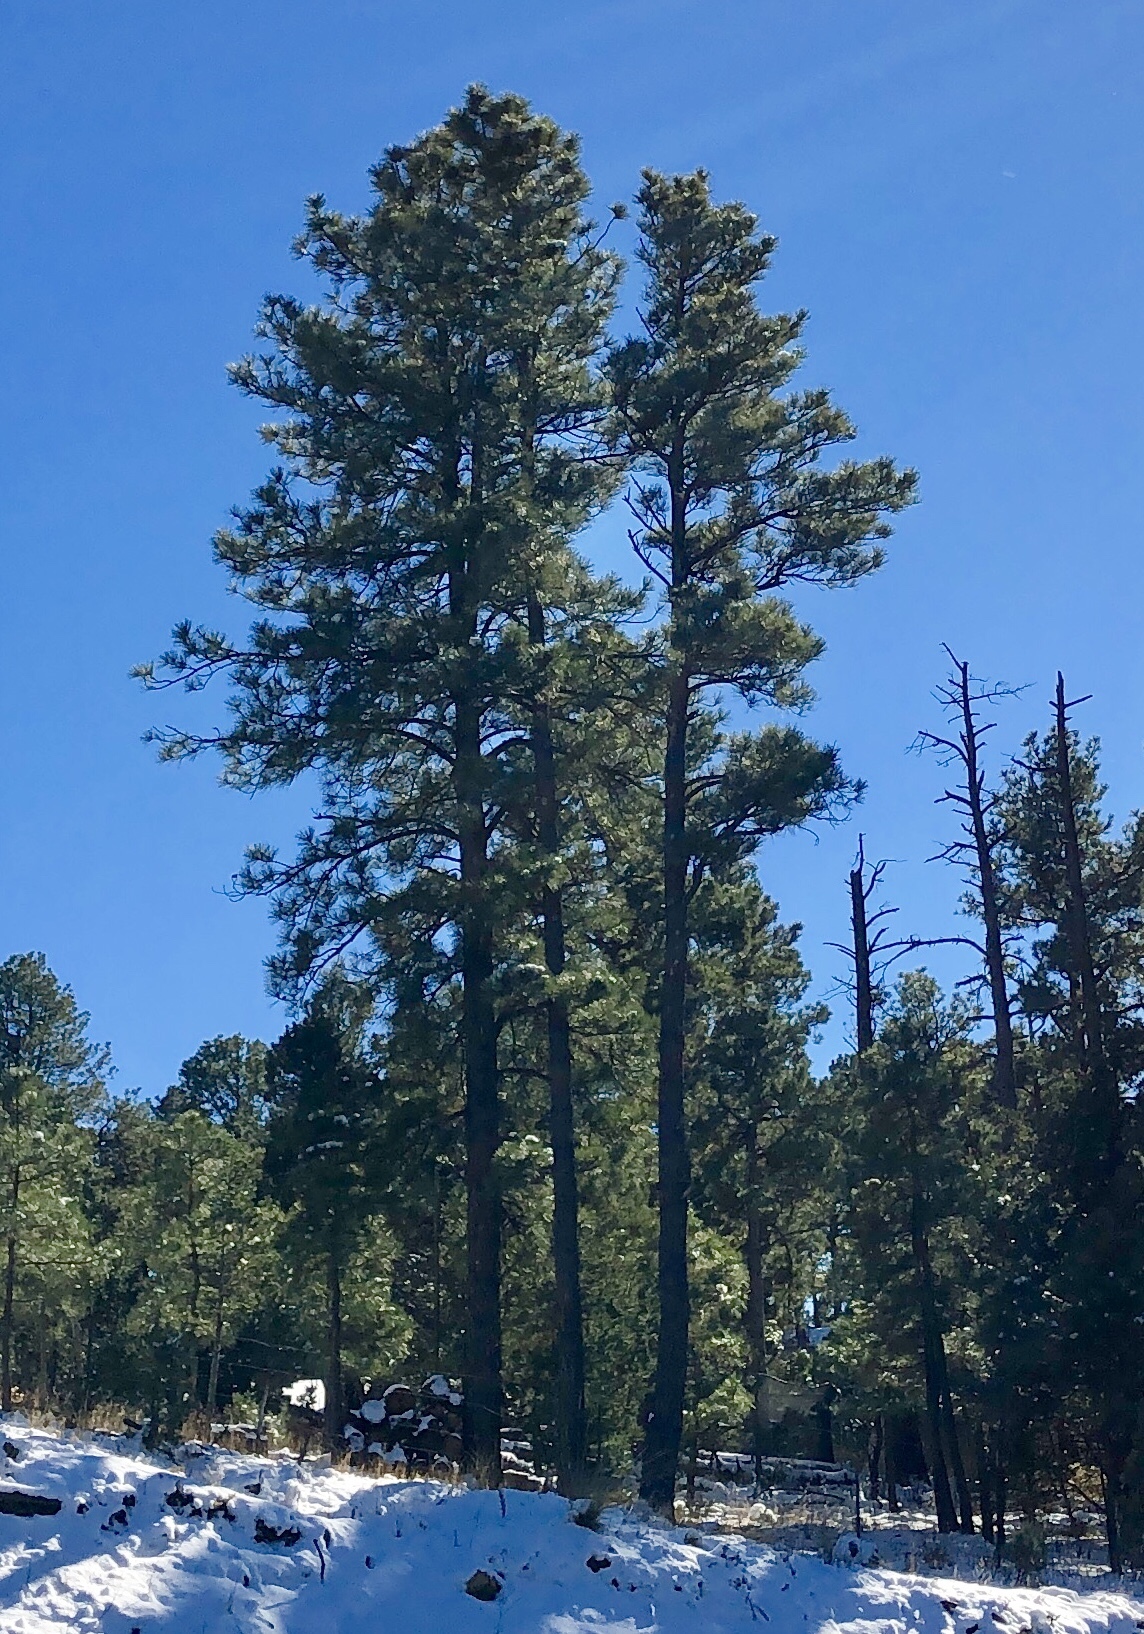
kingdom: Plantae
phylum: Tracheophyta
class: Pinopsida
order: Pinales
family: Pinaceae
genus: Pinus
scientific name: Pinus ponderosa
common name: Western yellow-pine
